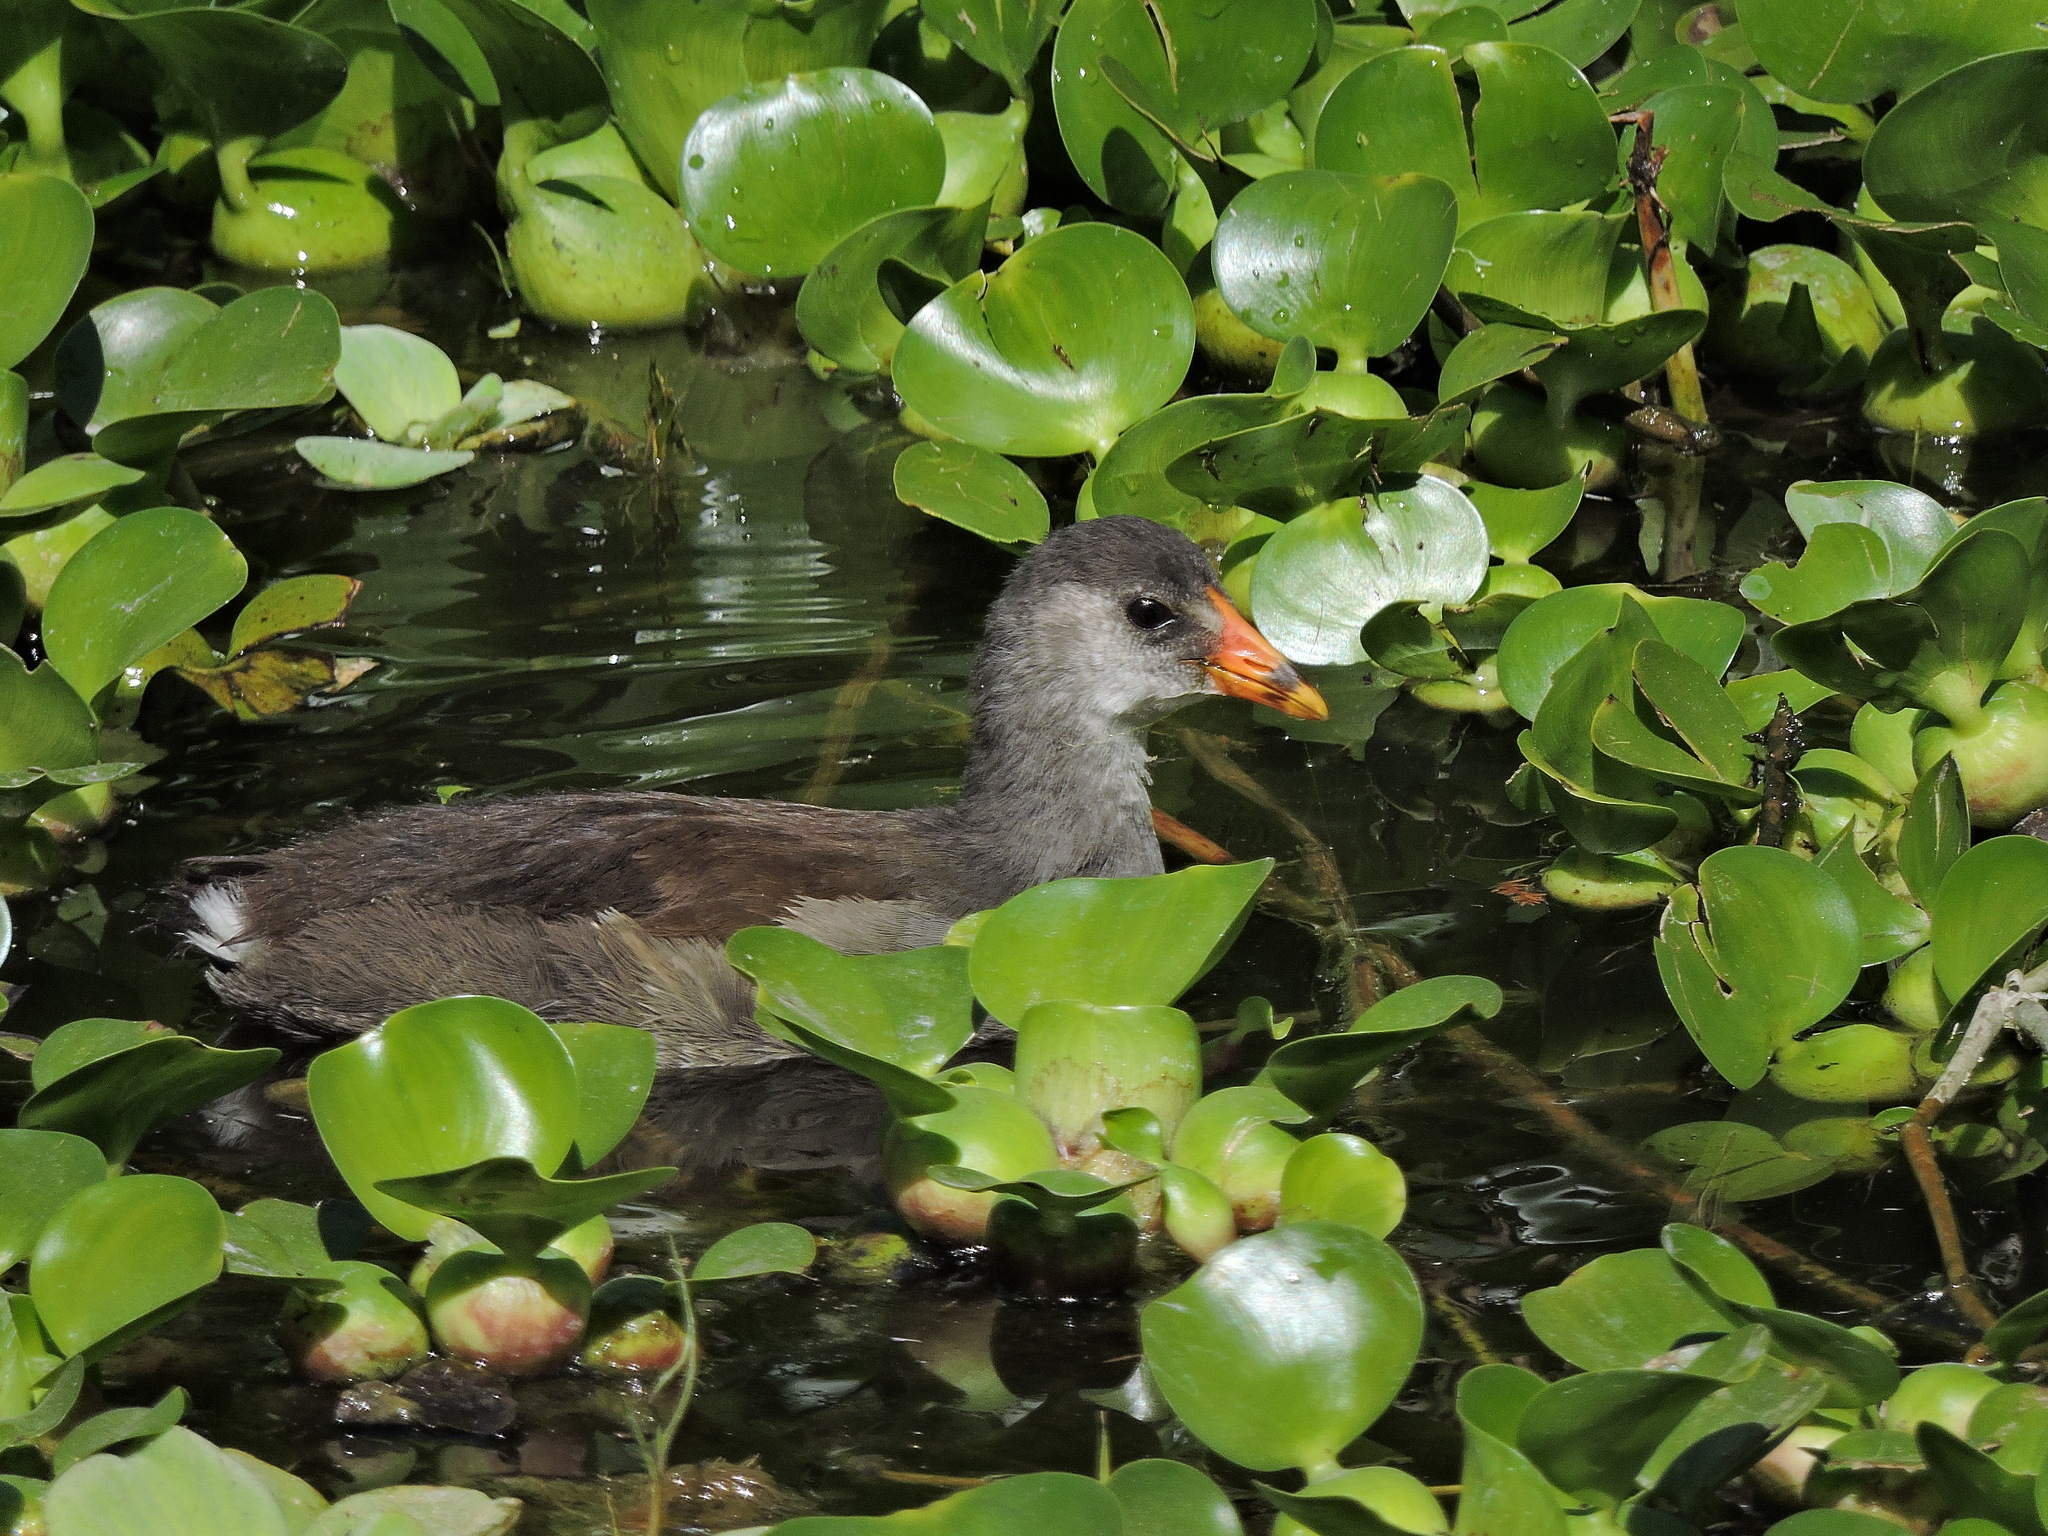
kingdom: Animalia
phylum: Chordata
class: Aves
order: Gruiformes
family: Rallidae
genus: Gallinula
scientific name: Gallinula chloropus
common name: Common moorhen
